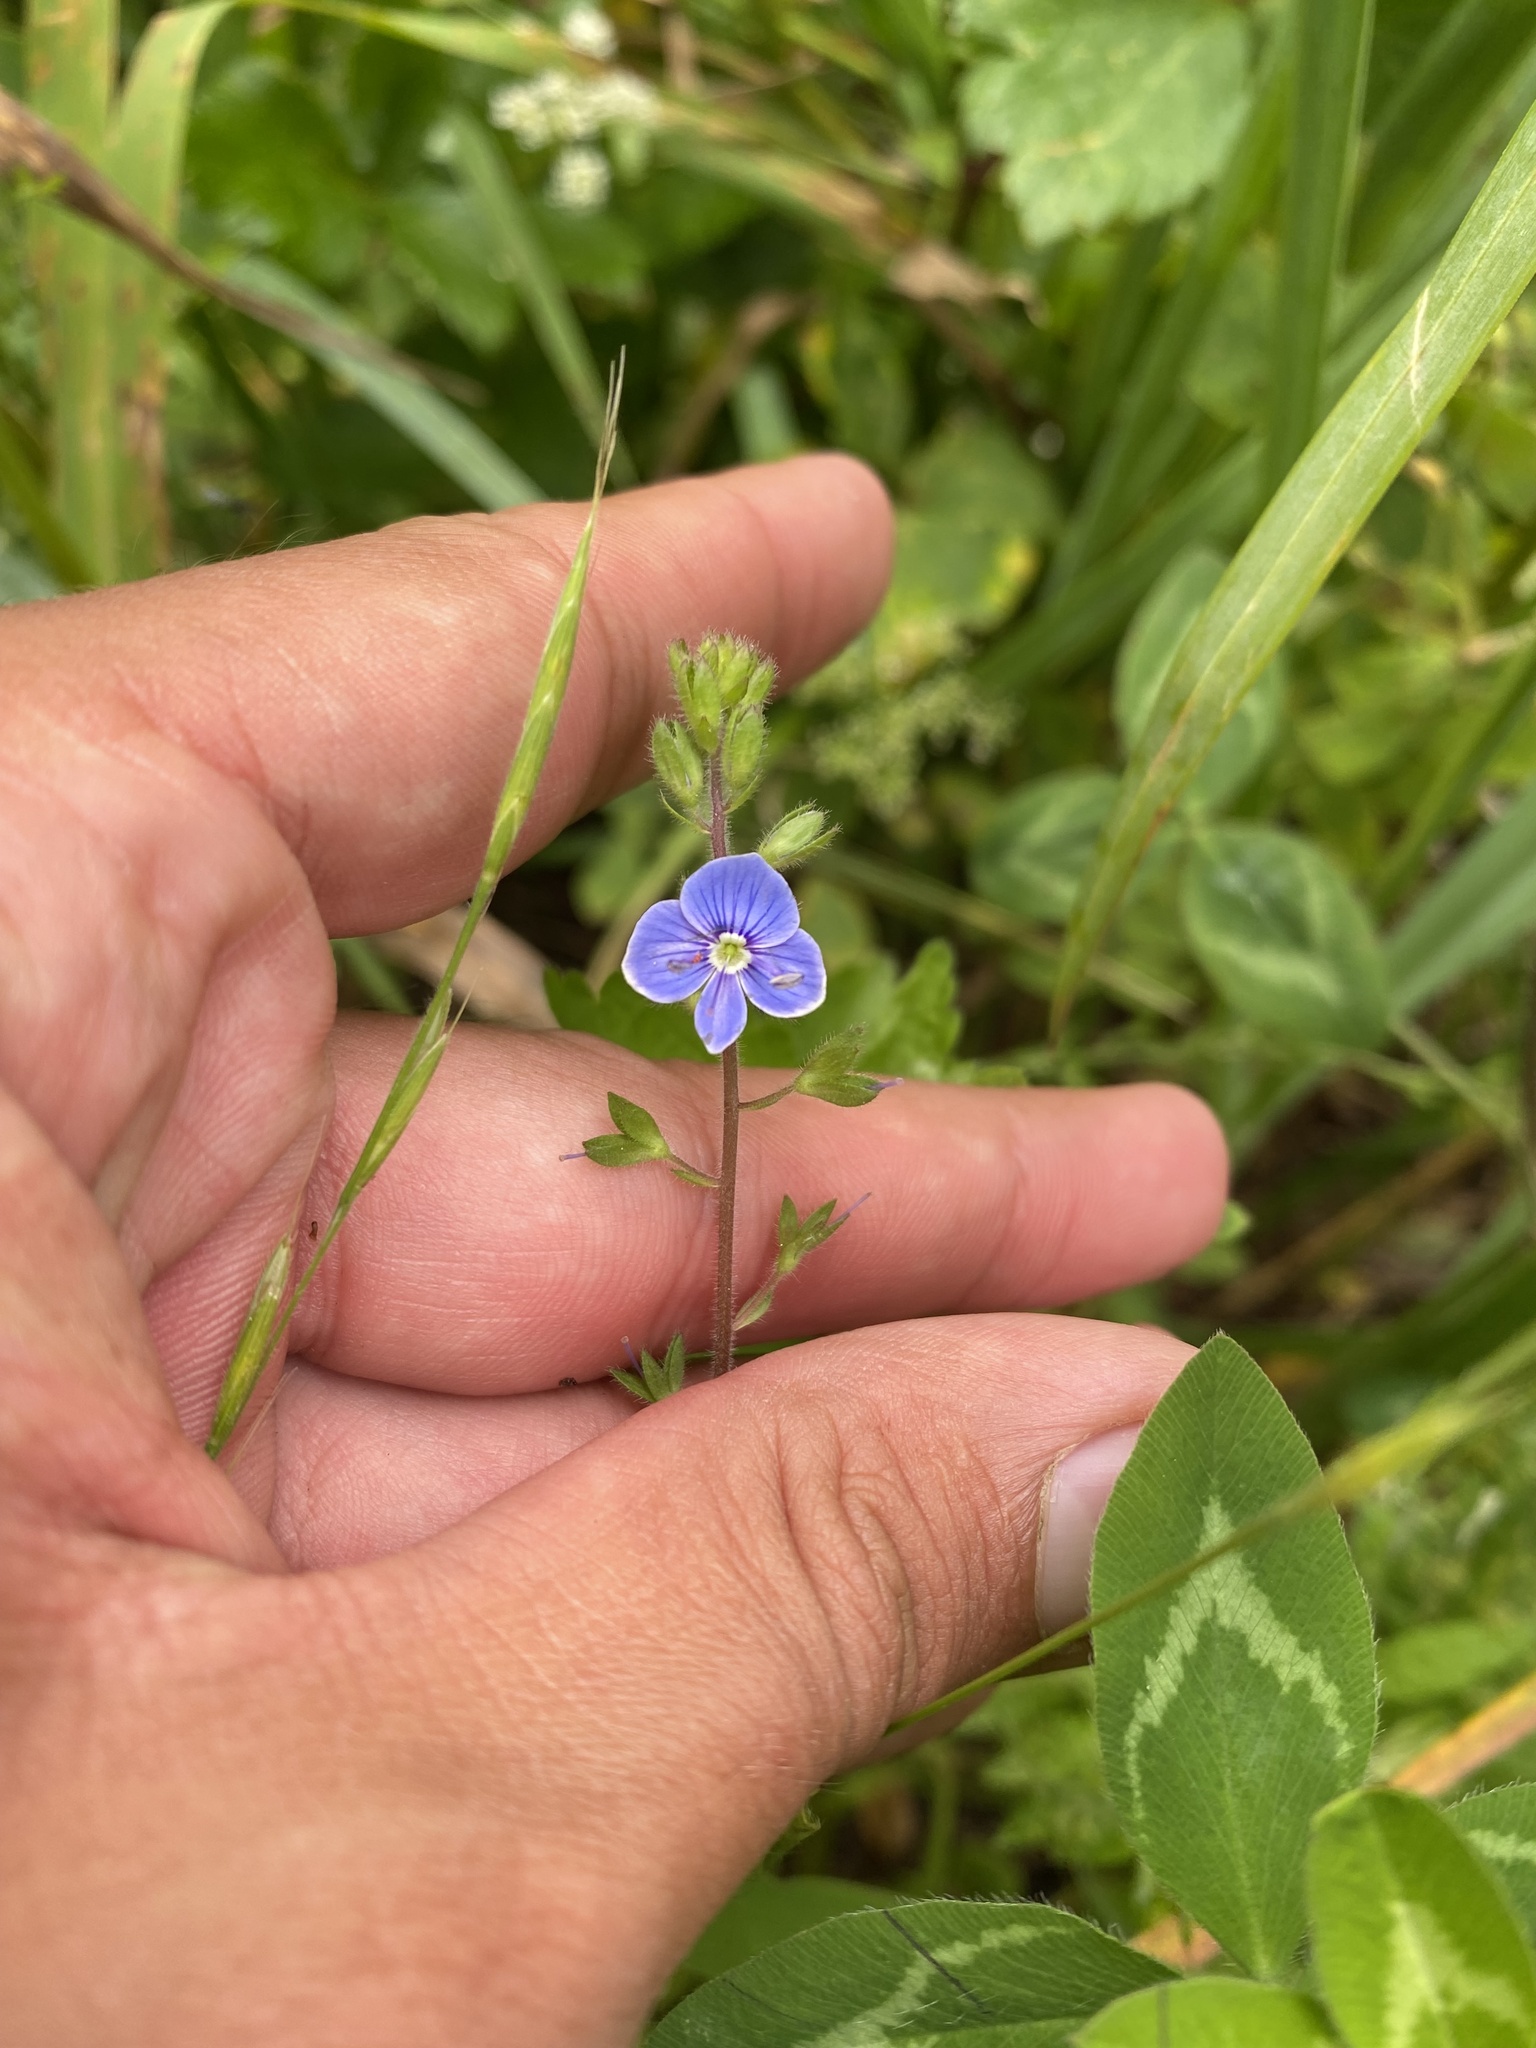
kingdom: Plantae
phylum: Tracheophyta
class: Magnoliopsida
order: Lamiales
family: Plantaginaceae
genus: Veronica
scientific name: Veronica chamaedrys
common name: Germander speedwell
